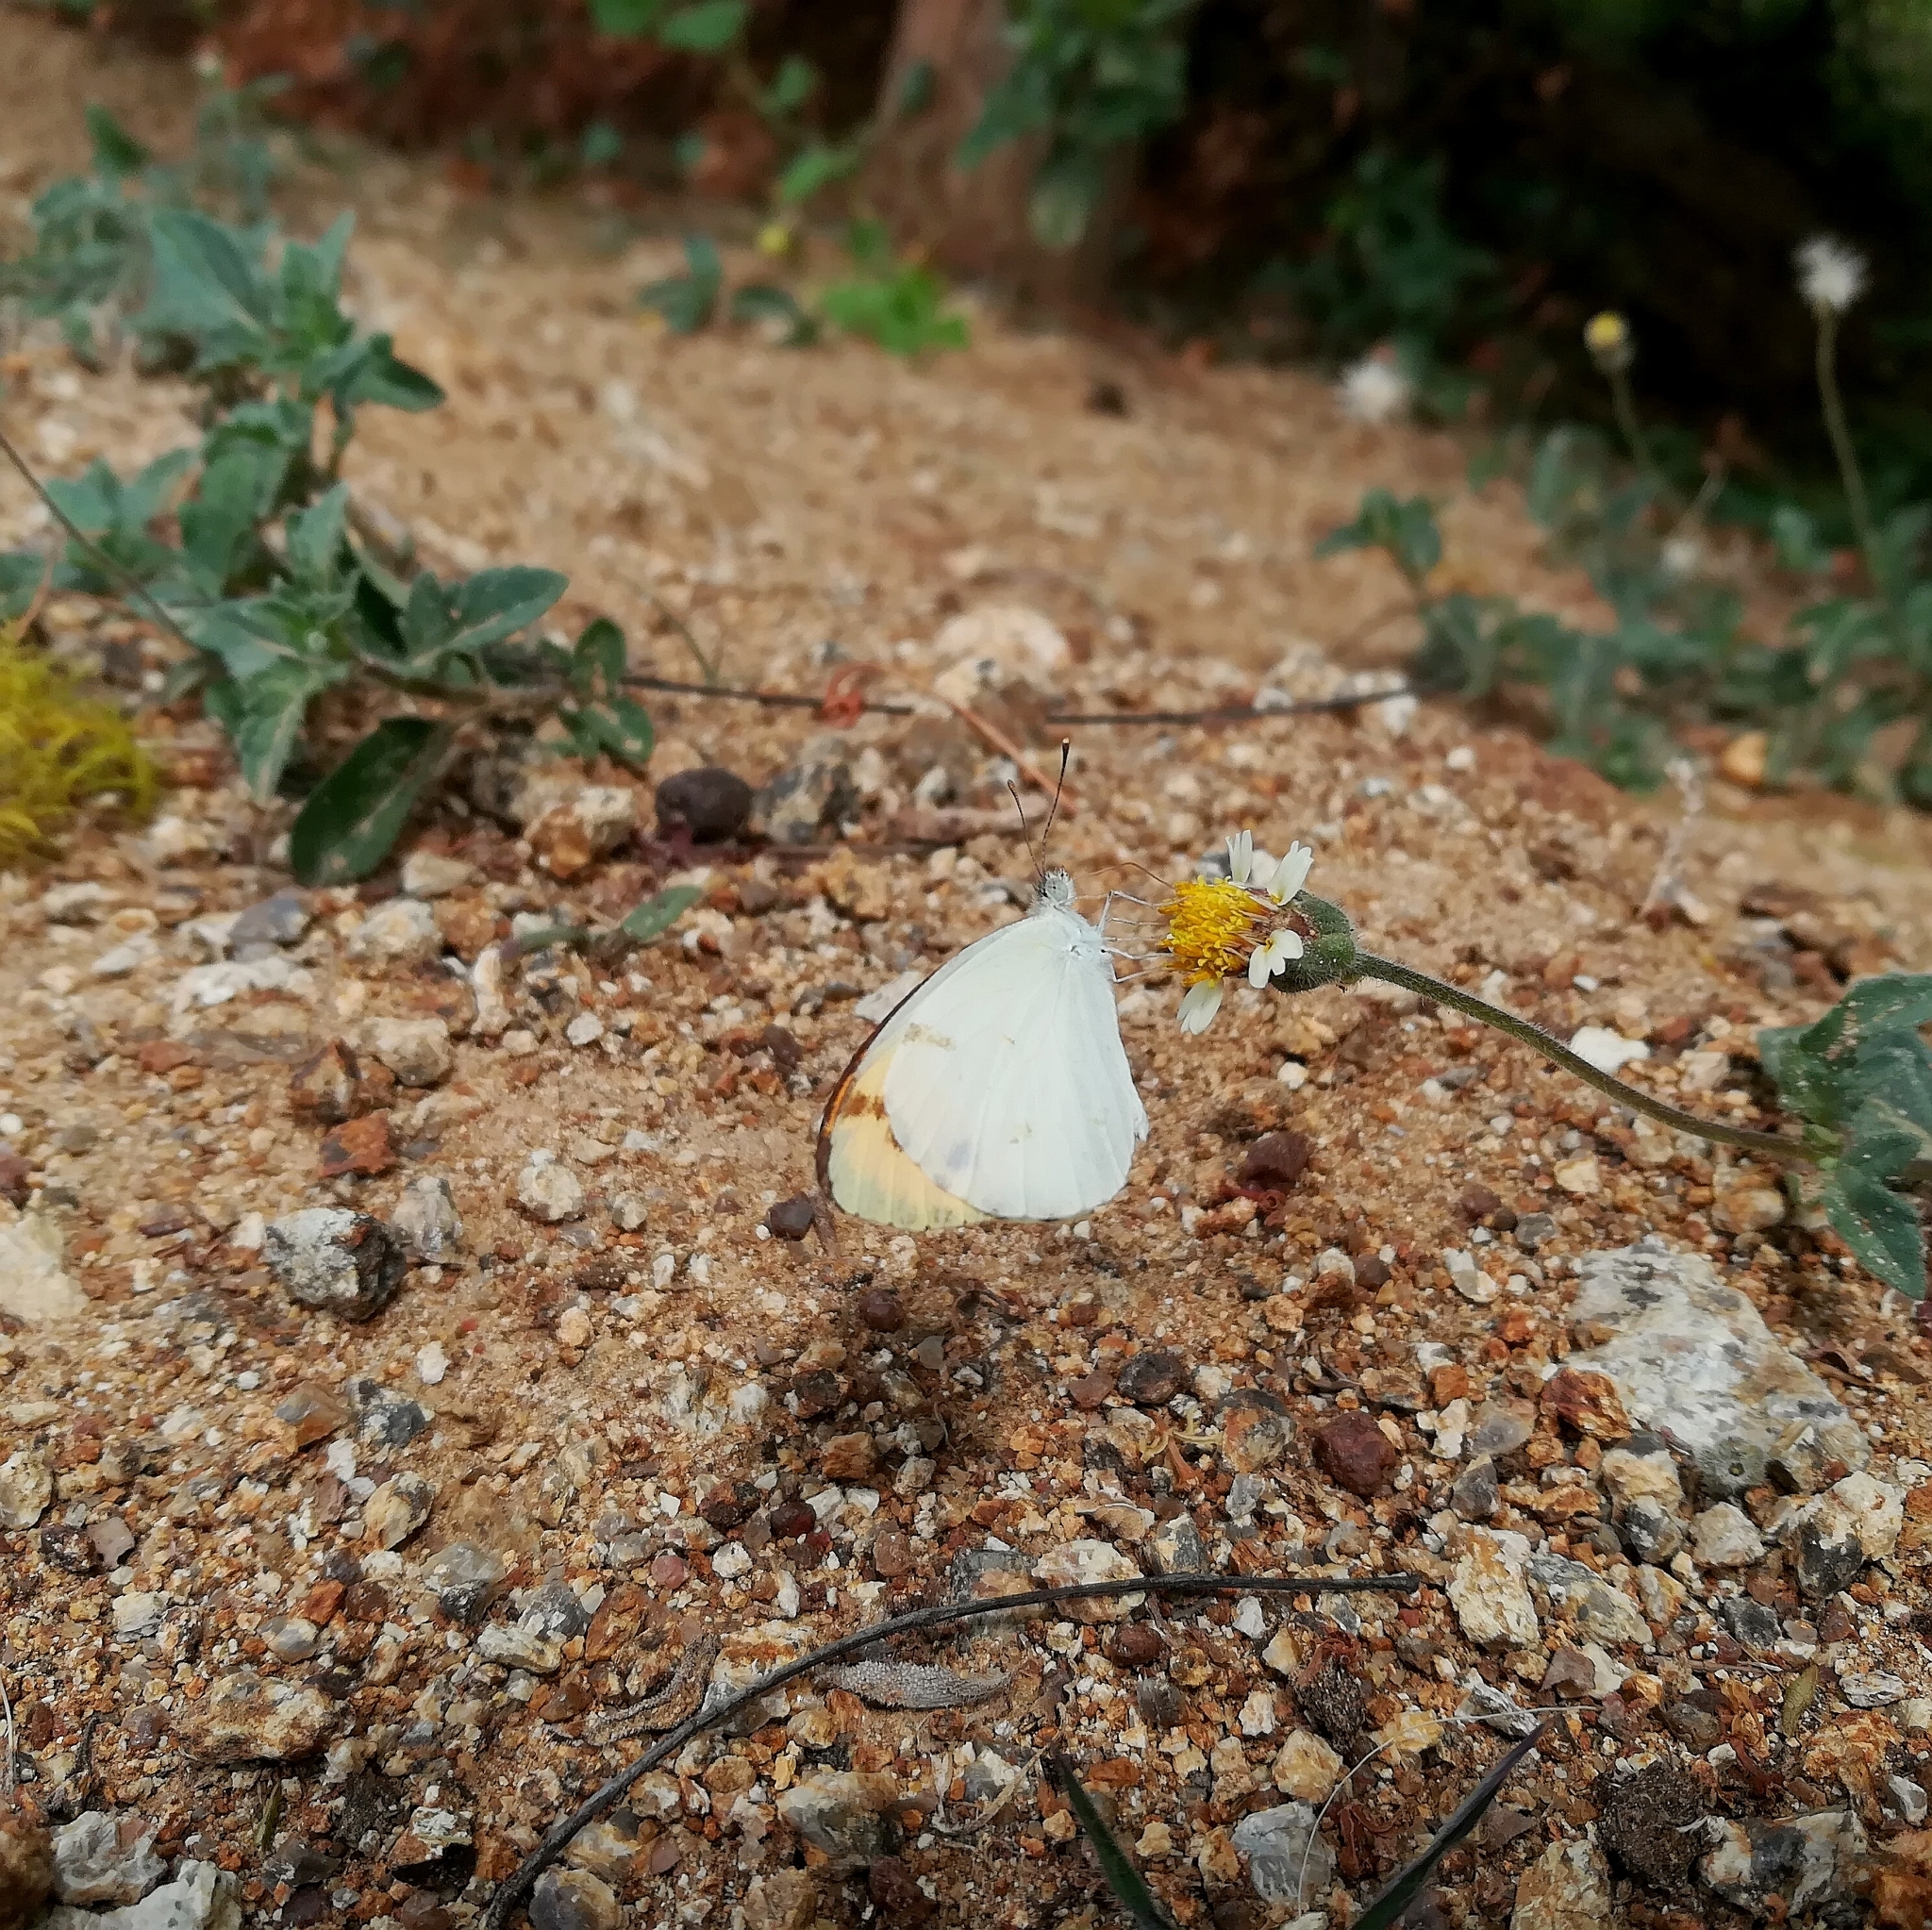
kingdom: Animalia
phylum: Arthropoda
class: Insecta
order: Lepidoptera
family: Pieridae
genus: Colotis
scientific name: Colotis aurora
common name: Plain orange-tip
